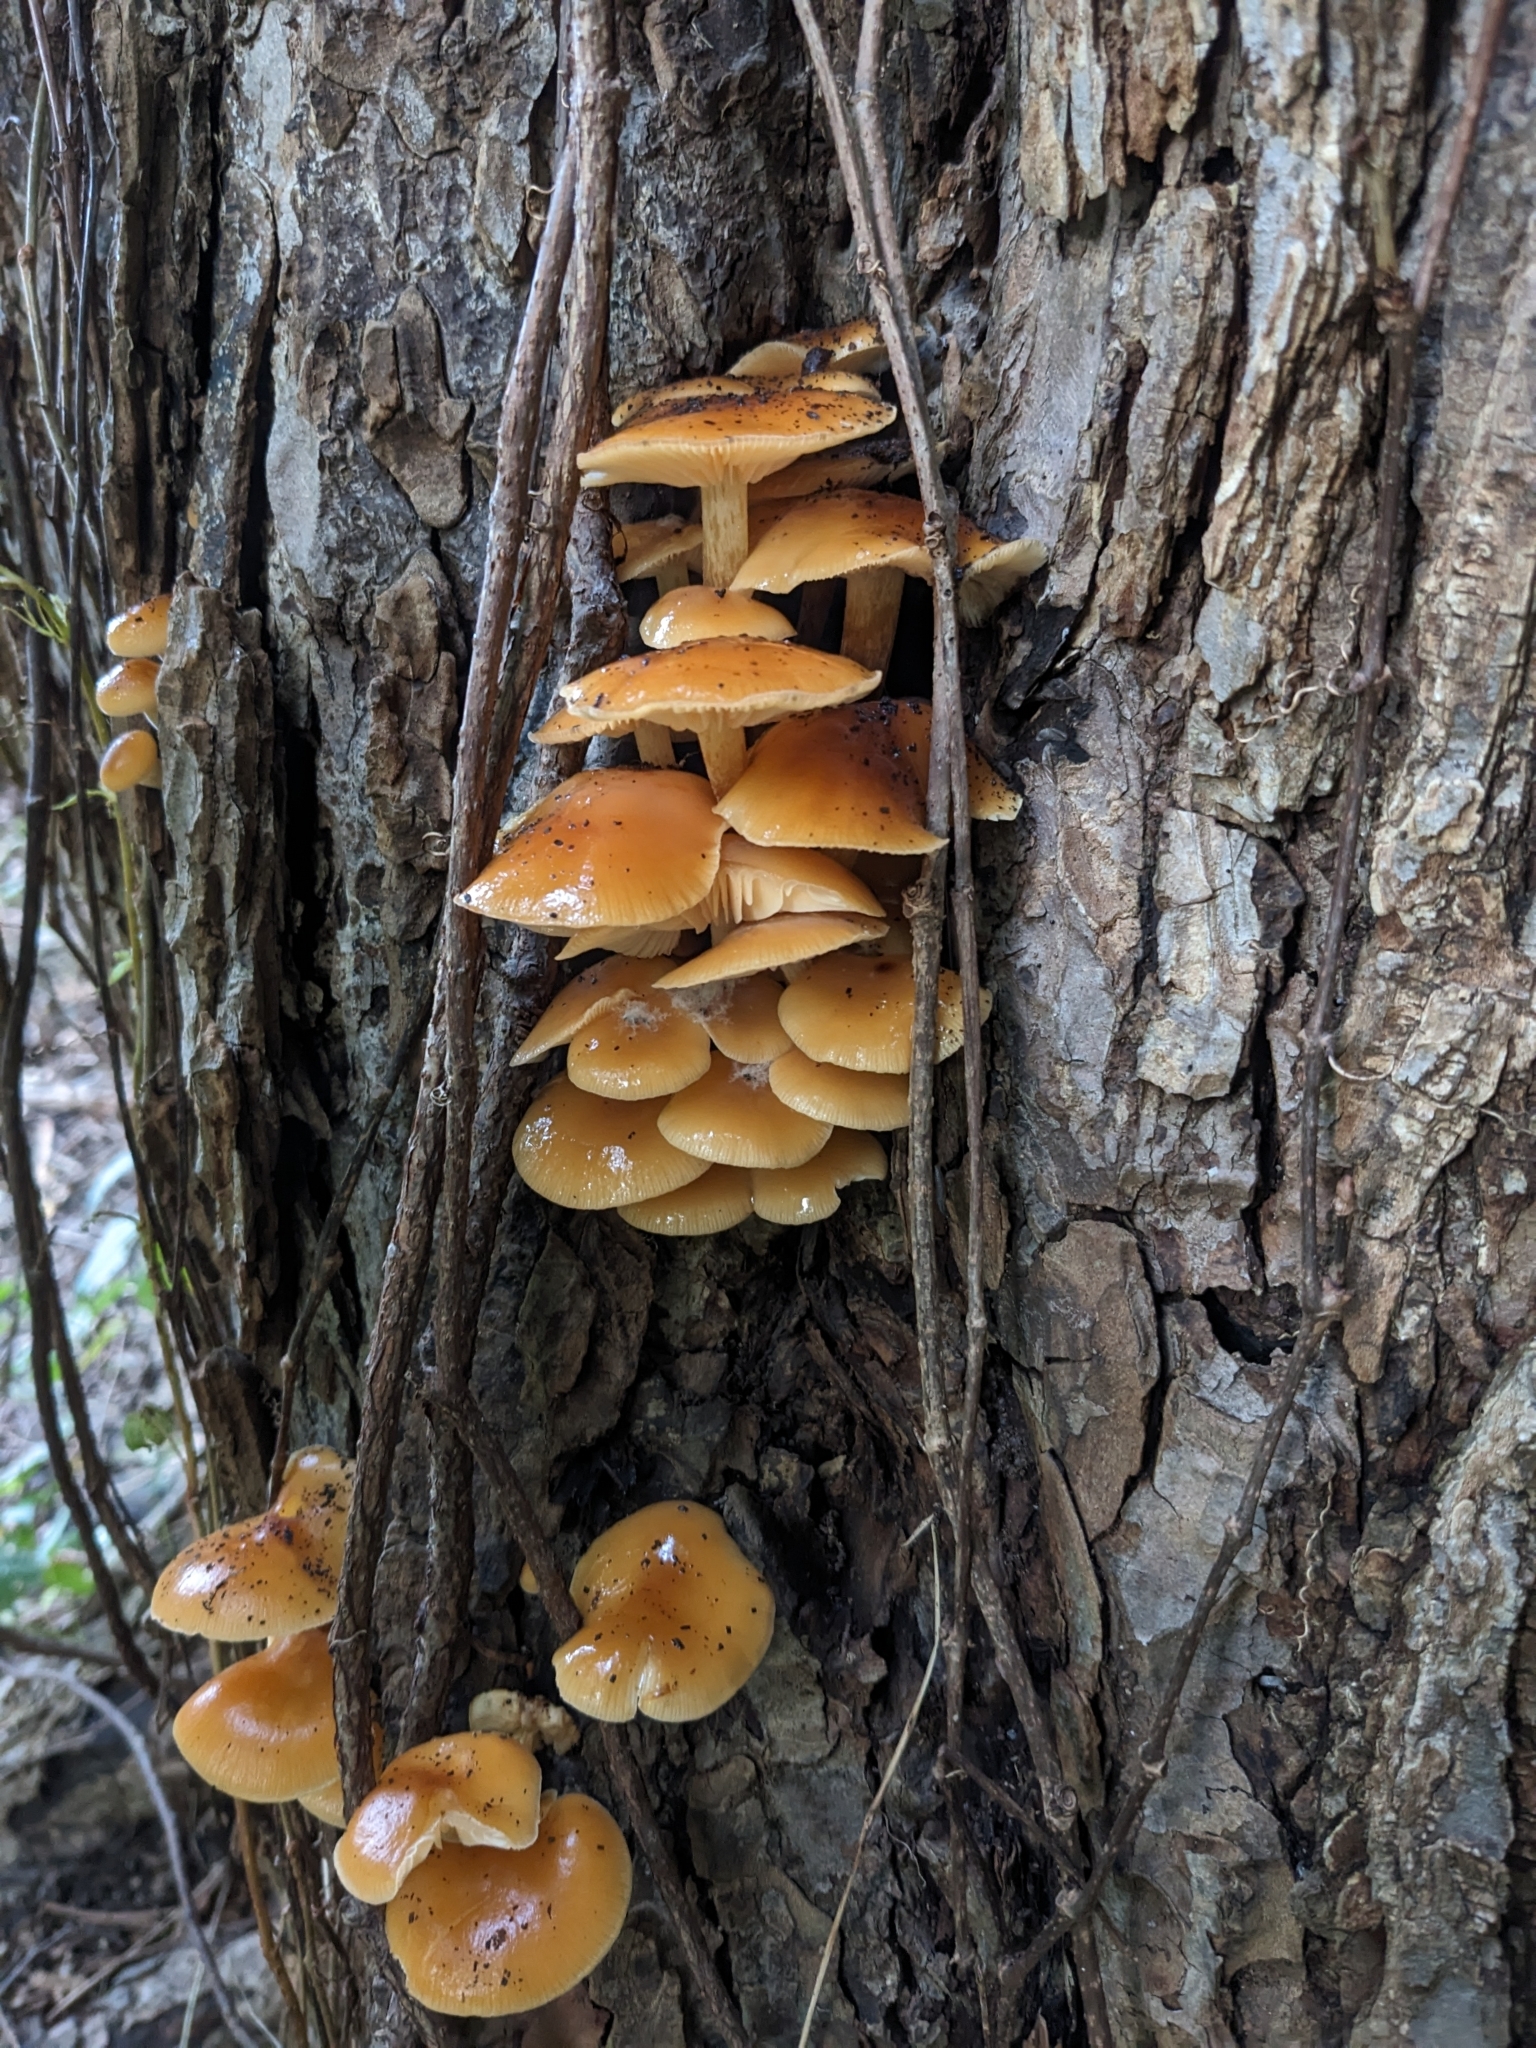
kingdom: Fungi
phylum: Basidiomycota
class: Agaricomycetes
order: Agaricales
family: Physalacriaceae
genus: Flammulina
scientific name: Flammulina velutipes
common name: Velvet shank
